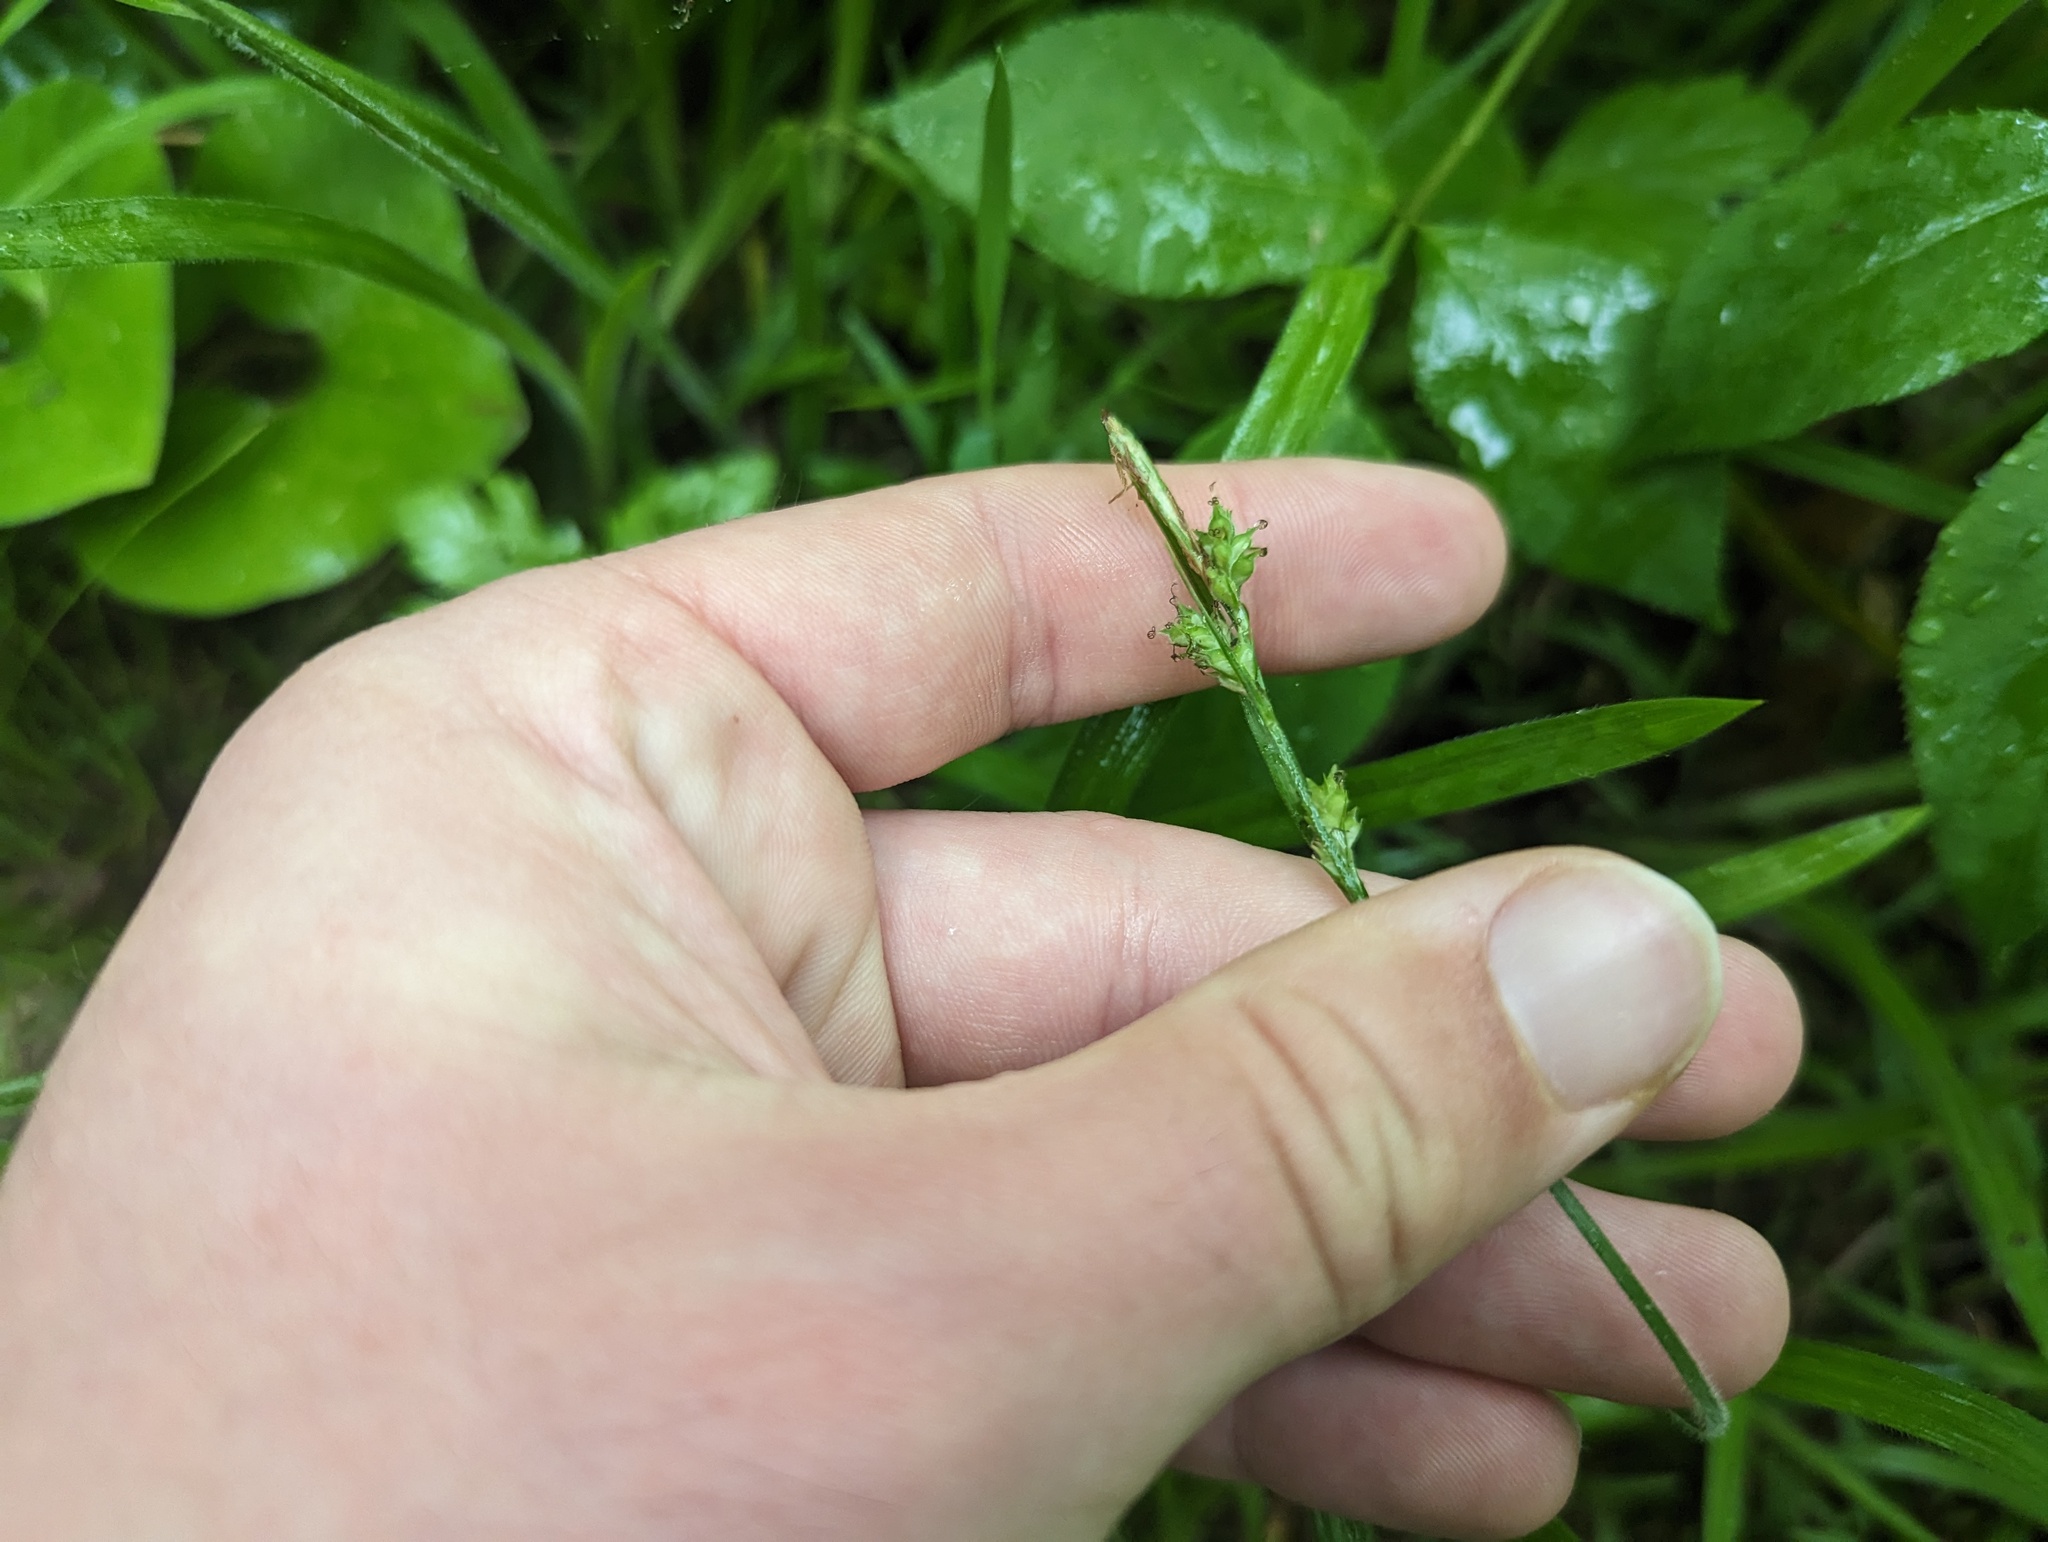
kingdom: Plantae
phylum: Tracheophyta
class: Liliopsida
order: Poales
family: Cyperaceae
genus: Carex
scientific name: Carex hirtifolia
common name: Hairy sedge
